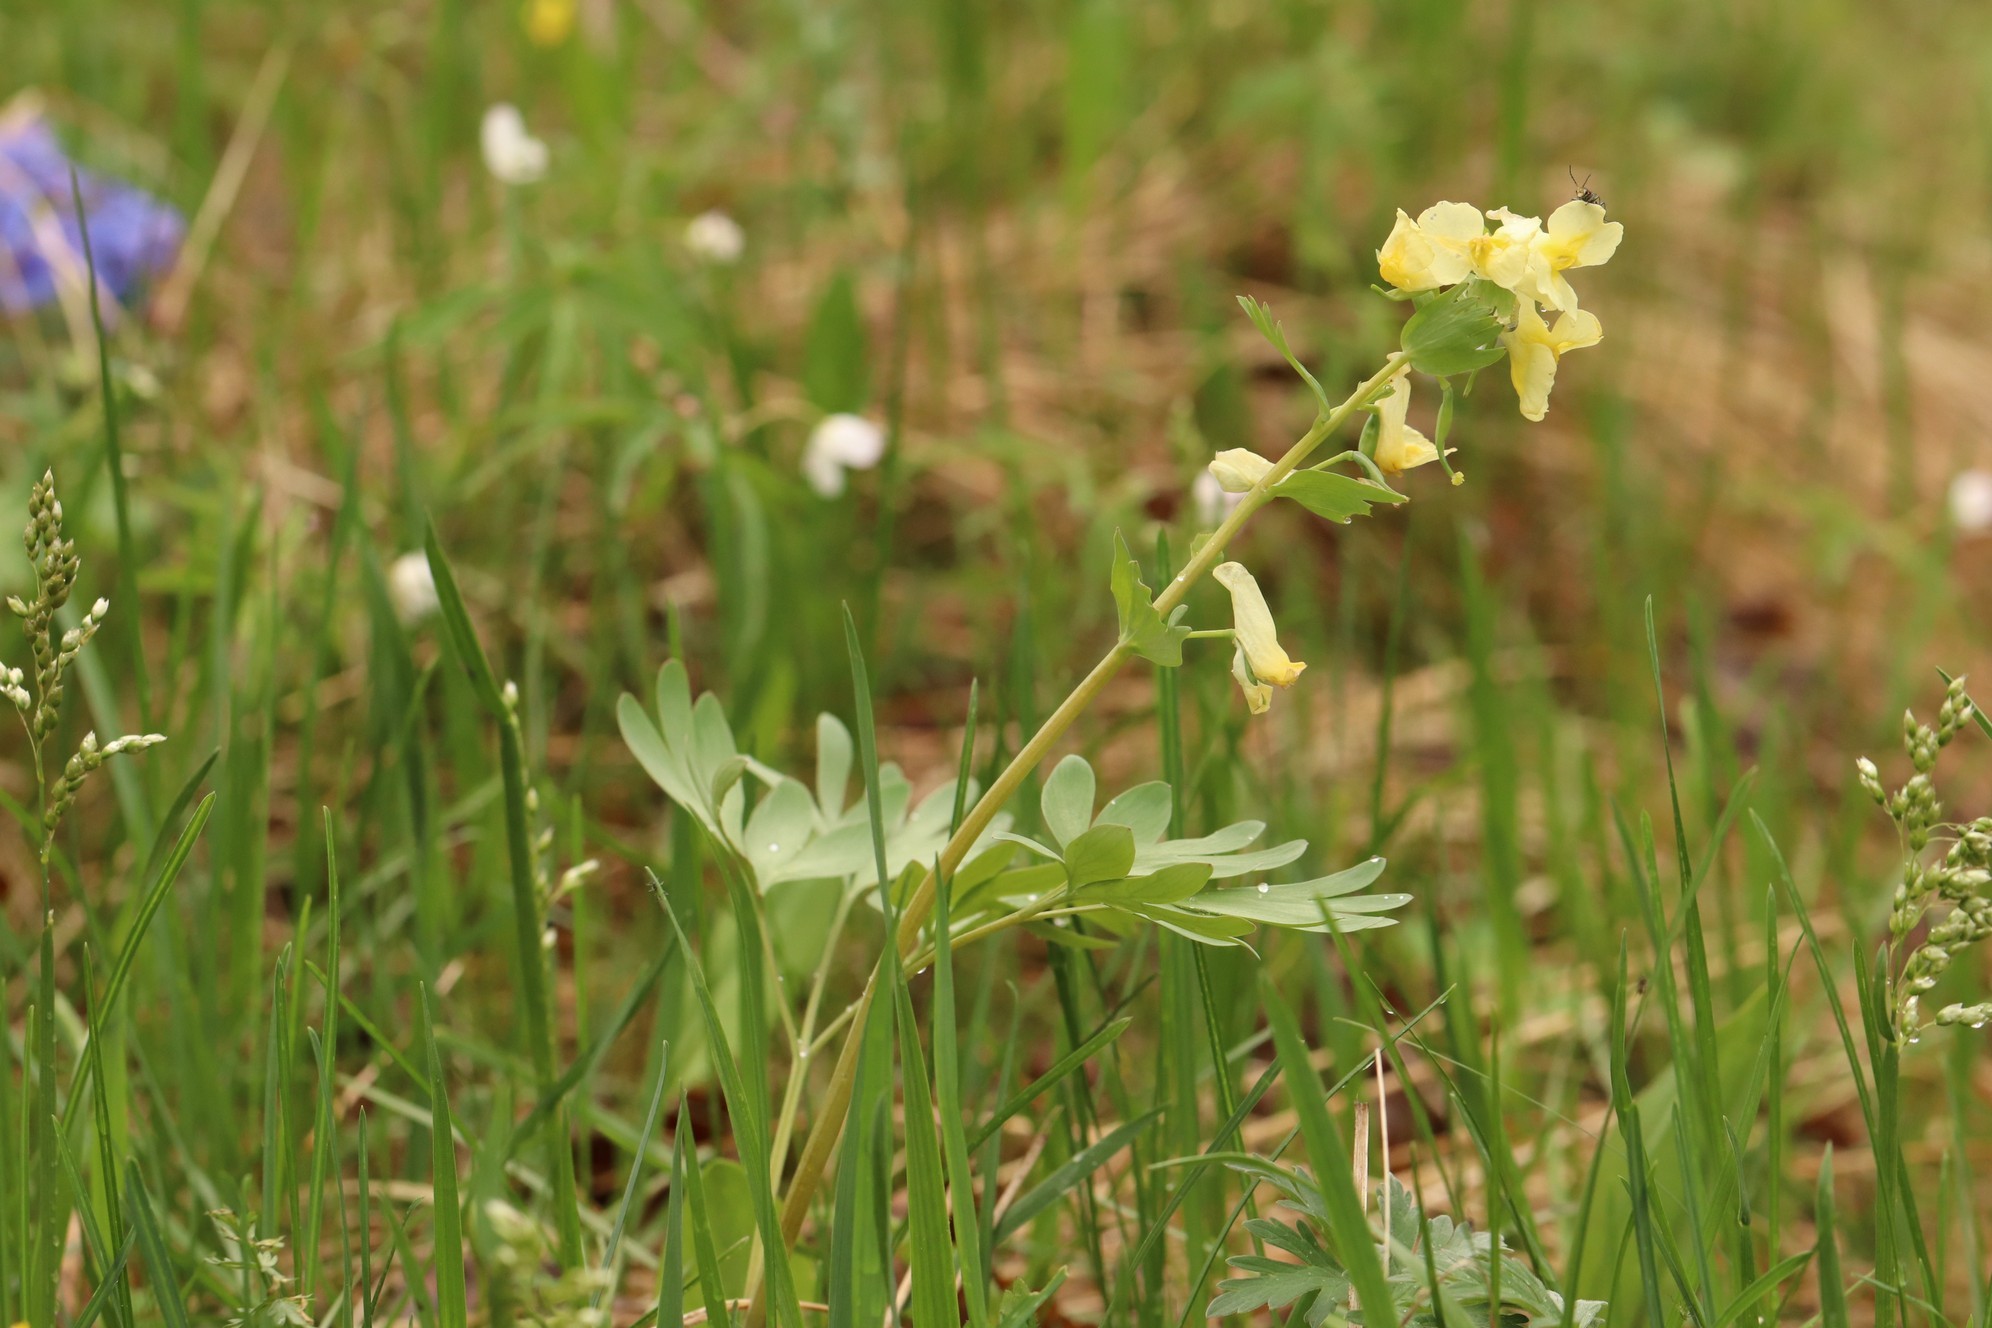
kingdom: Plantae
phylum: Tracheophyta
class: Magnoliopsida
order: Ranunculales
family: Papaveraceae
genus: Corydalis
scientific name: Corydalis bracteata
